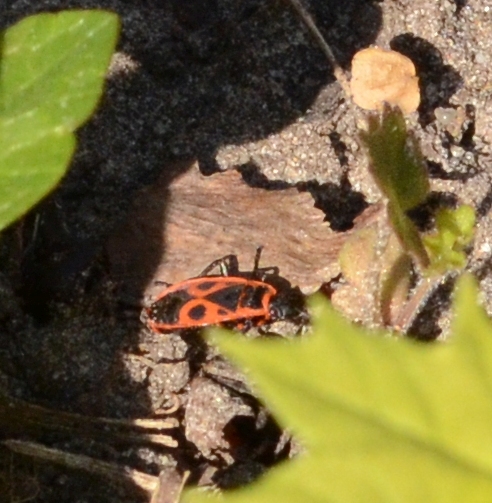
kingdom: Animalia
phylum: Arthropoda
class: Insecta
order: Hemiptera
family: Pyrrhocoridae
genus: Pyrrhocoris
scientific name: Pyrrhocoris apterus
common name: Firebug
